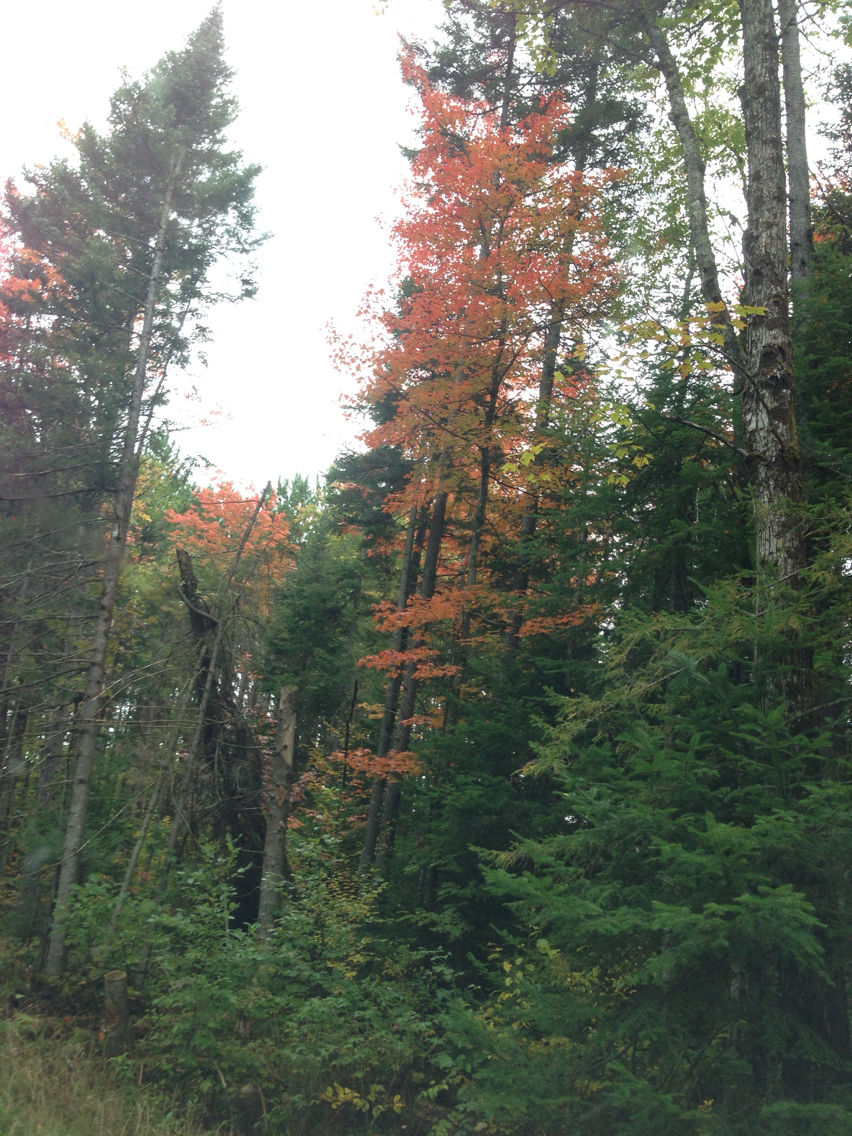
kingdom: Plantae
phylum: Tracheophyta
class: Magnoliopsida
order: Sapindales
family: Sapindaceae
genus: Acer
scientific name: Acer rubrum
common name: Red maple
